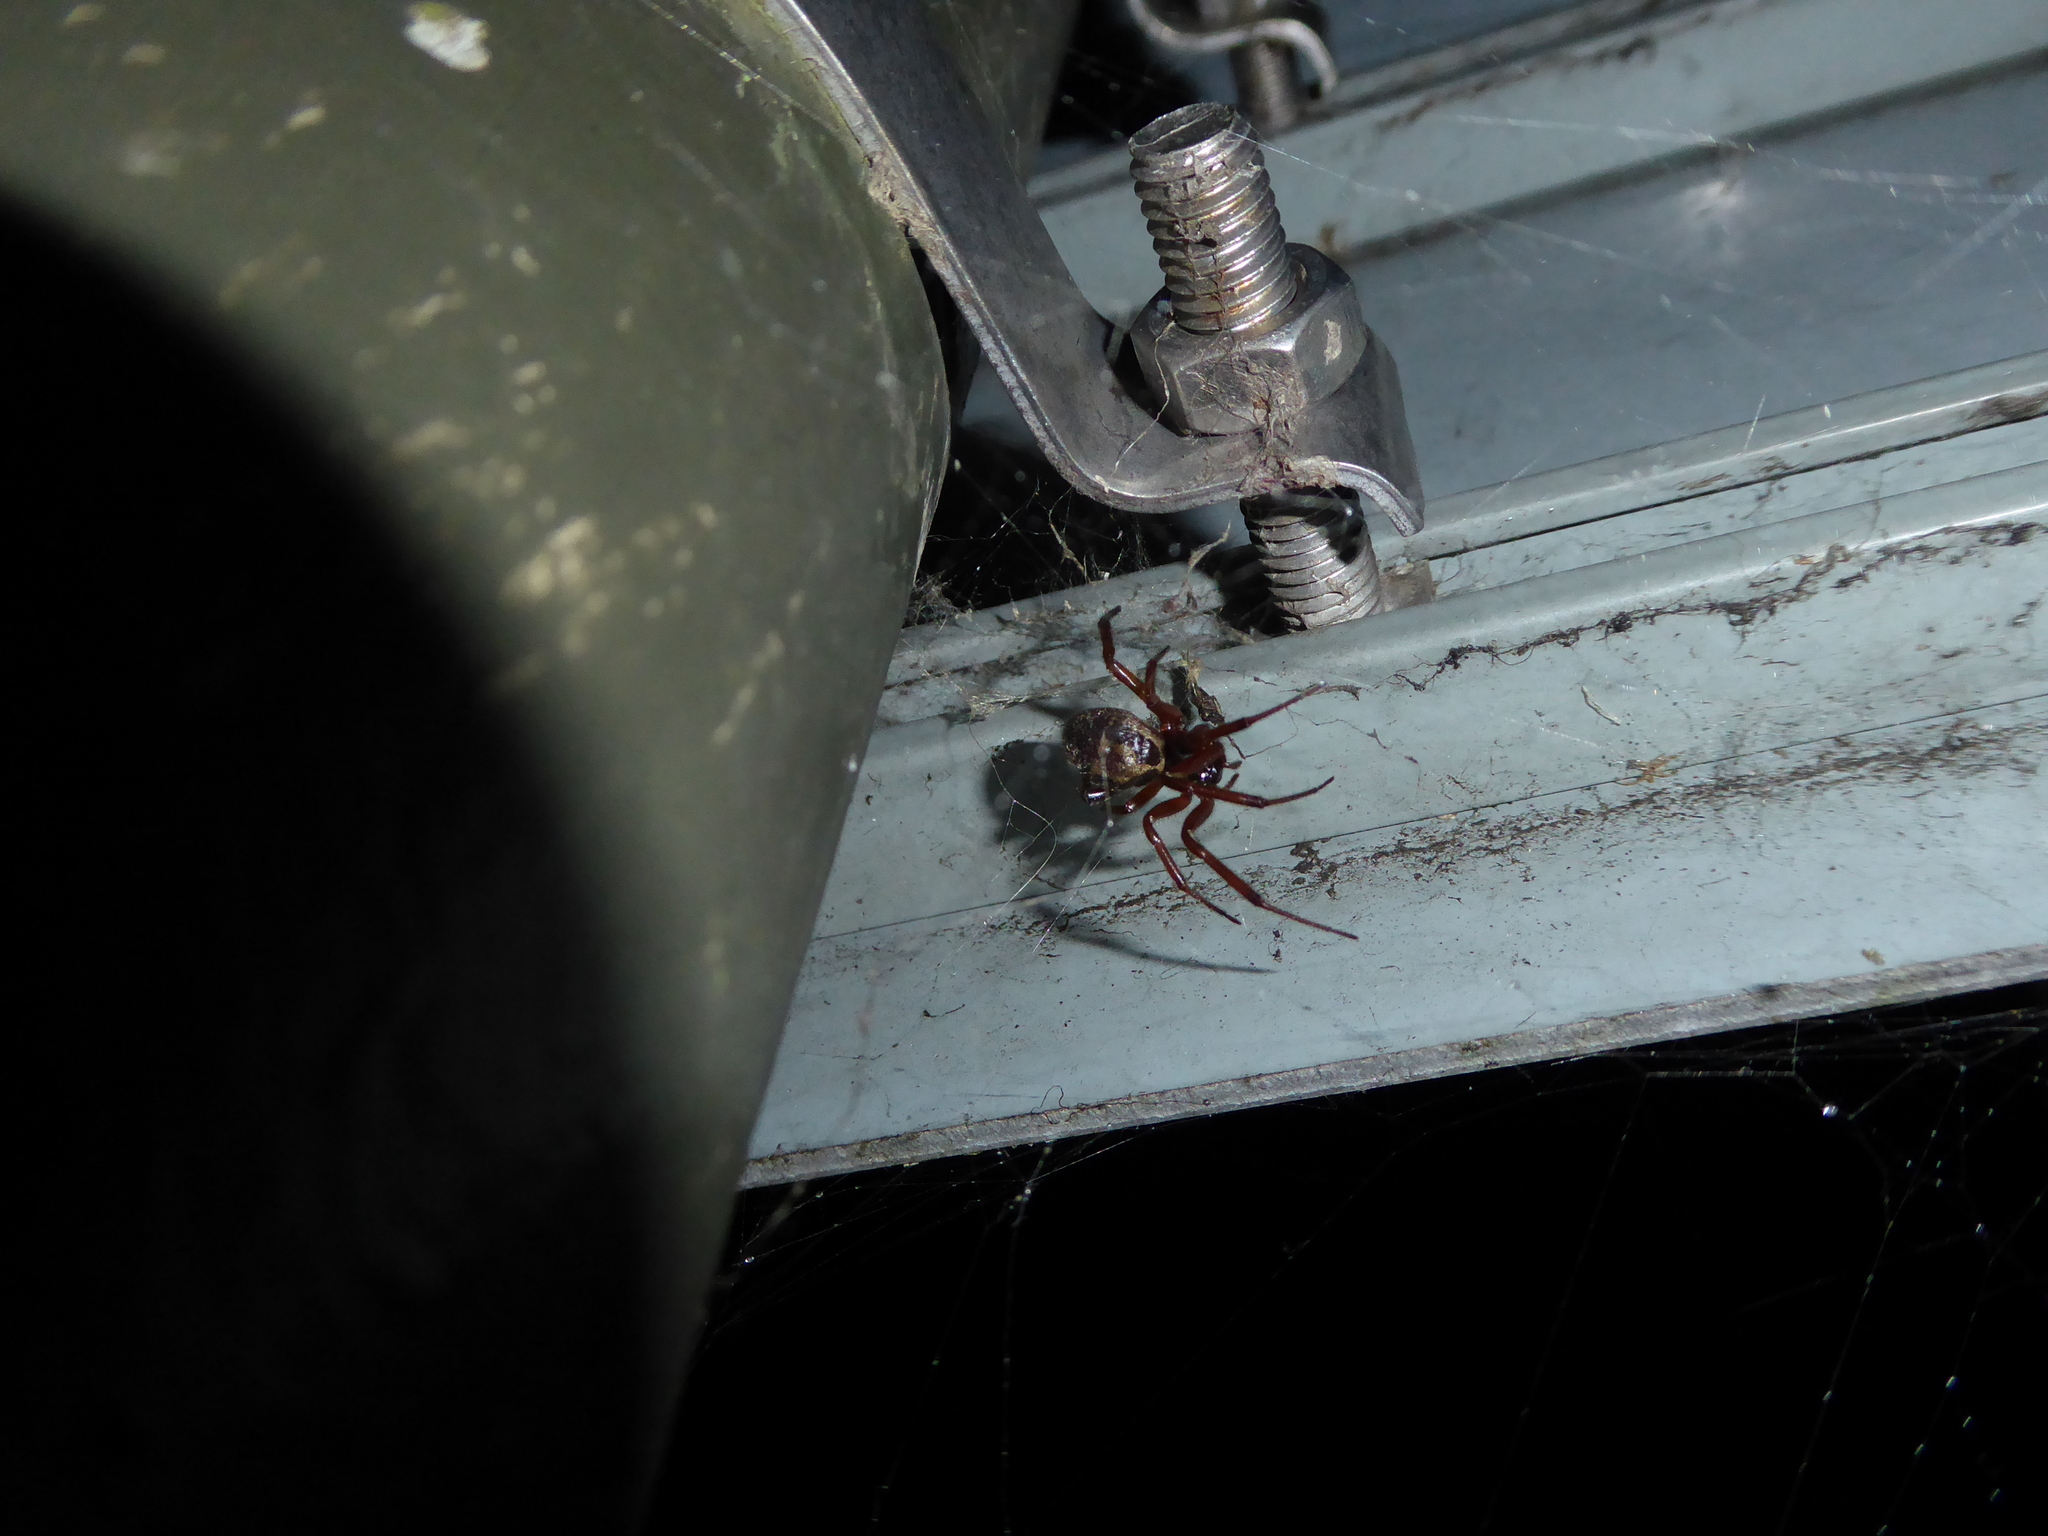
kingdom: Animalia
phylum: Arthropoda
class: Arachnida
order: Araneae
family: Theridiidae
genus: Steatoda
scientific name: Steatoda nobilis
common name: Cobweb weaver
